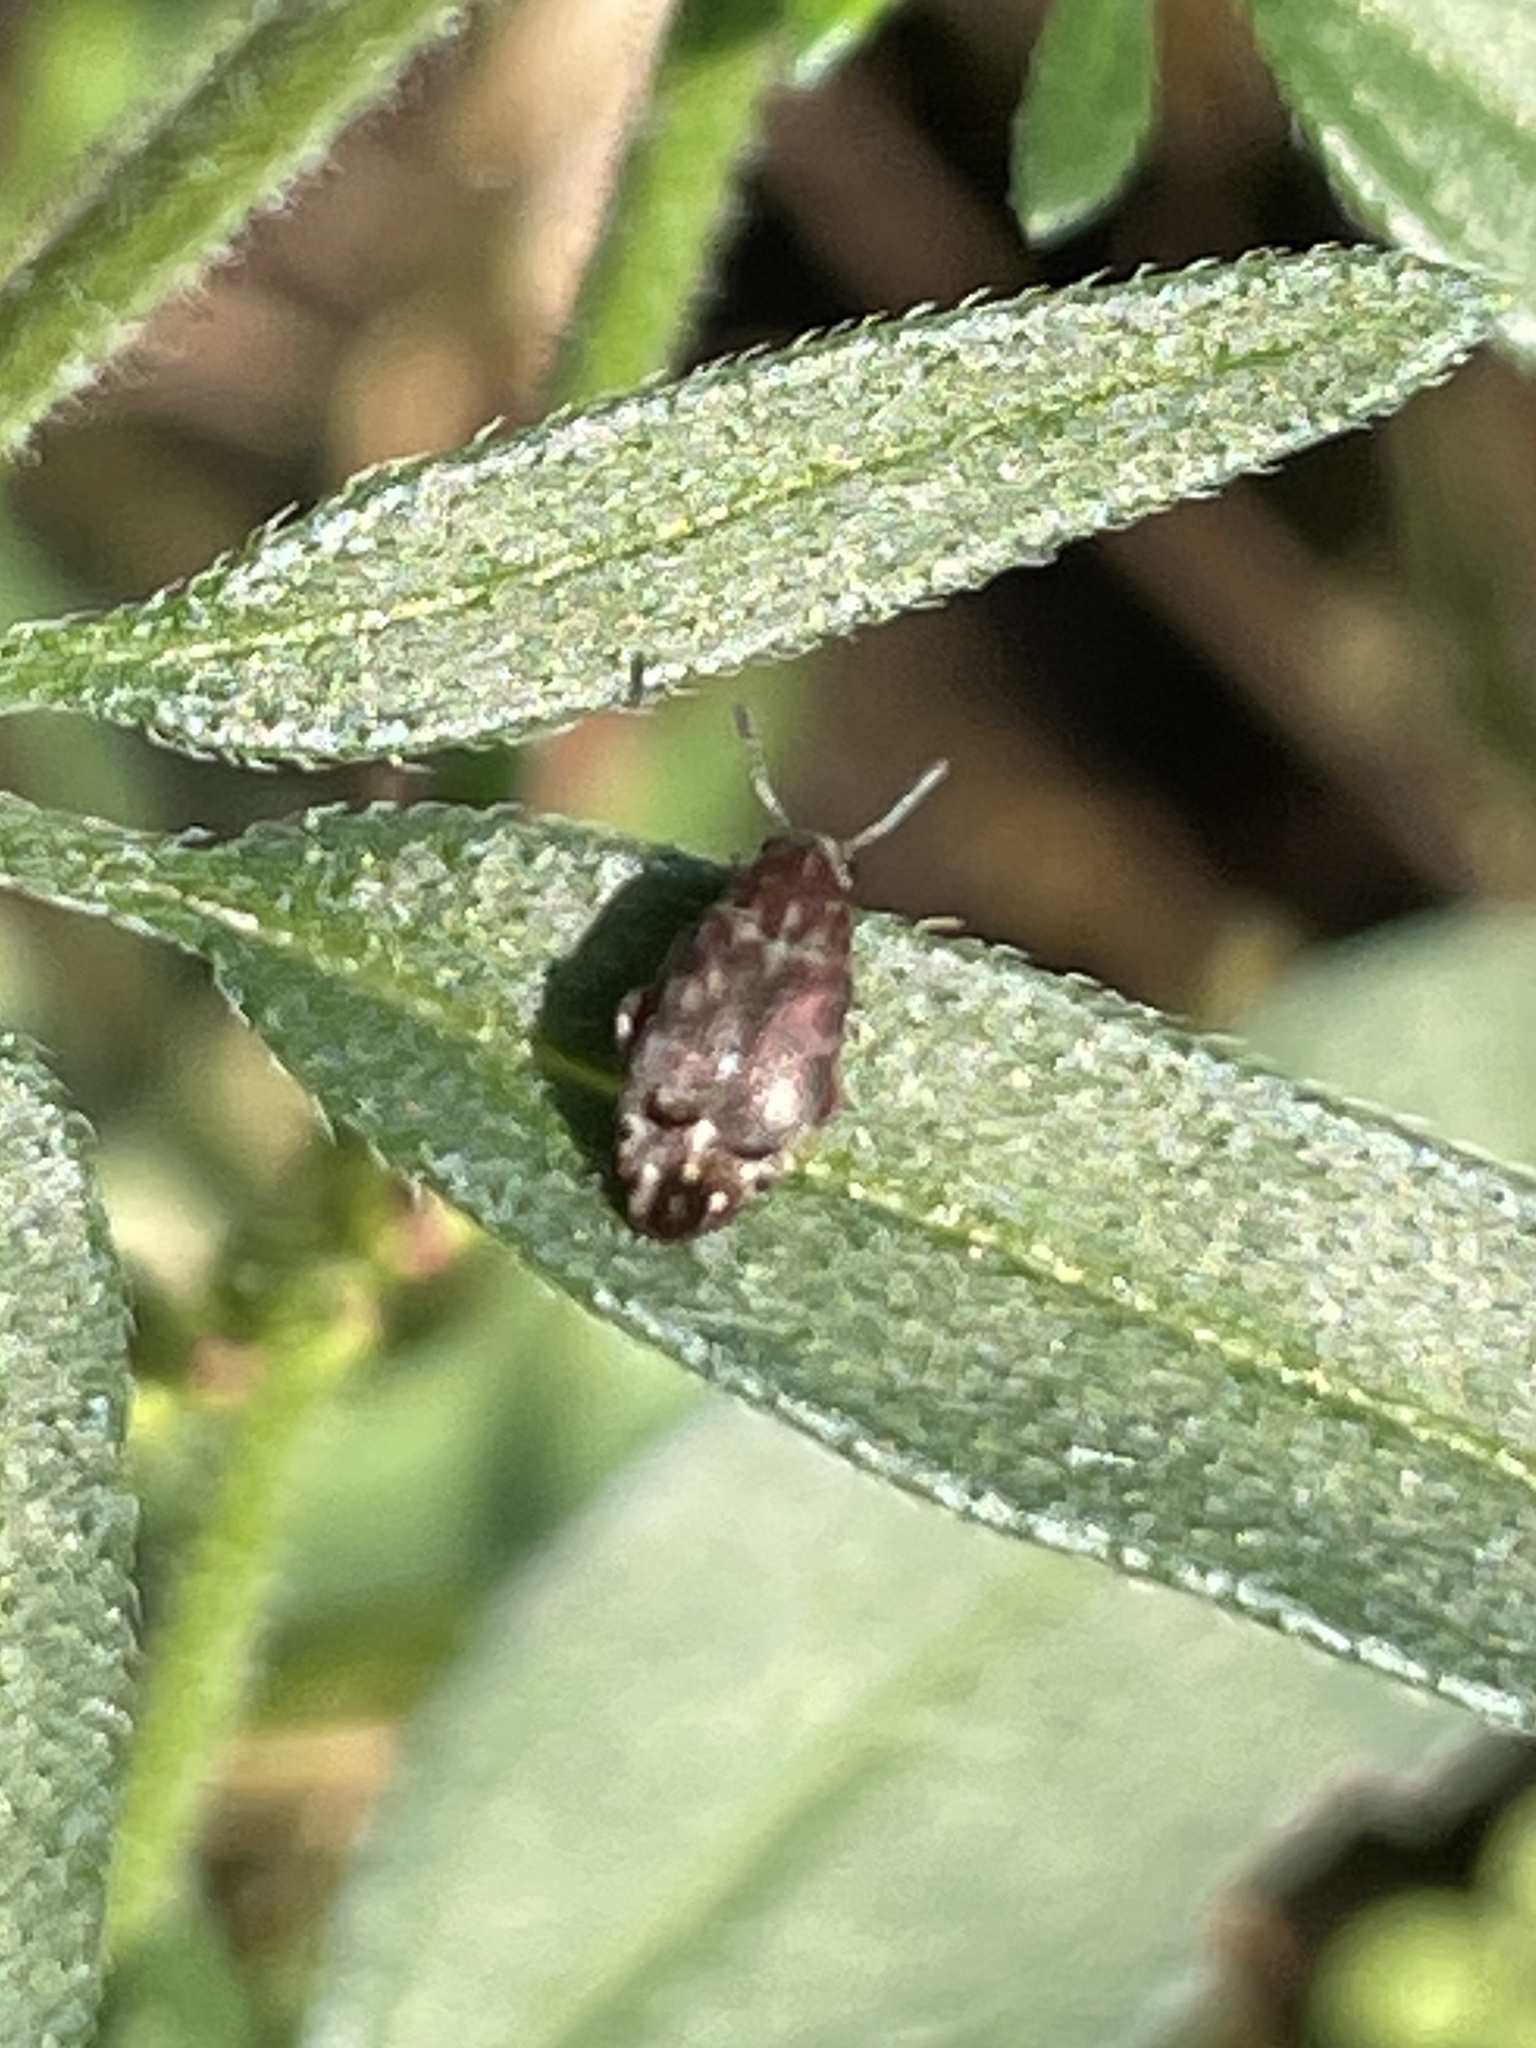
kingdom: Animalia
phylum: Arthropoda
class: Insecta
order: Coleoptera
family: Chrysomelidae
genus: Mimosestes
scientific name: Mimosestes nubigens
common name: Leaf beetle
